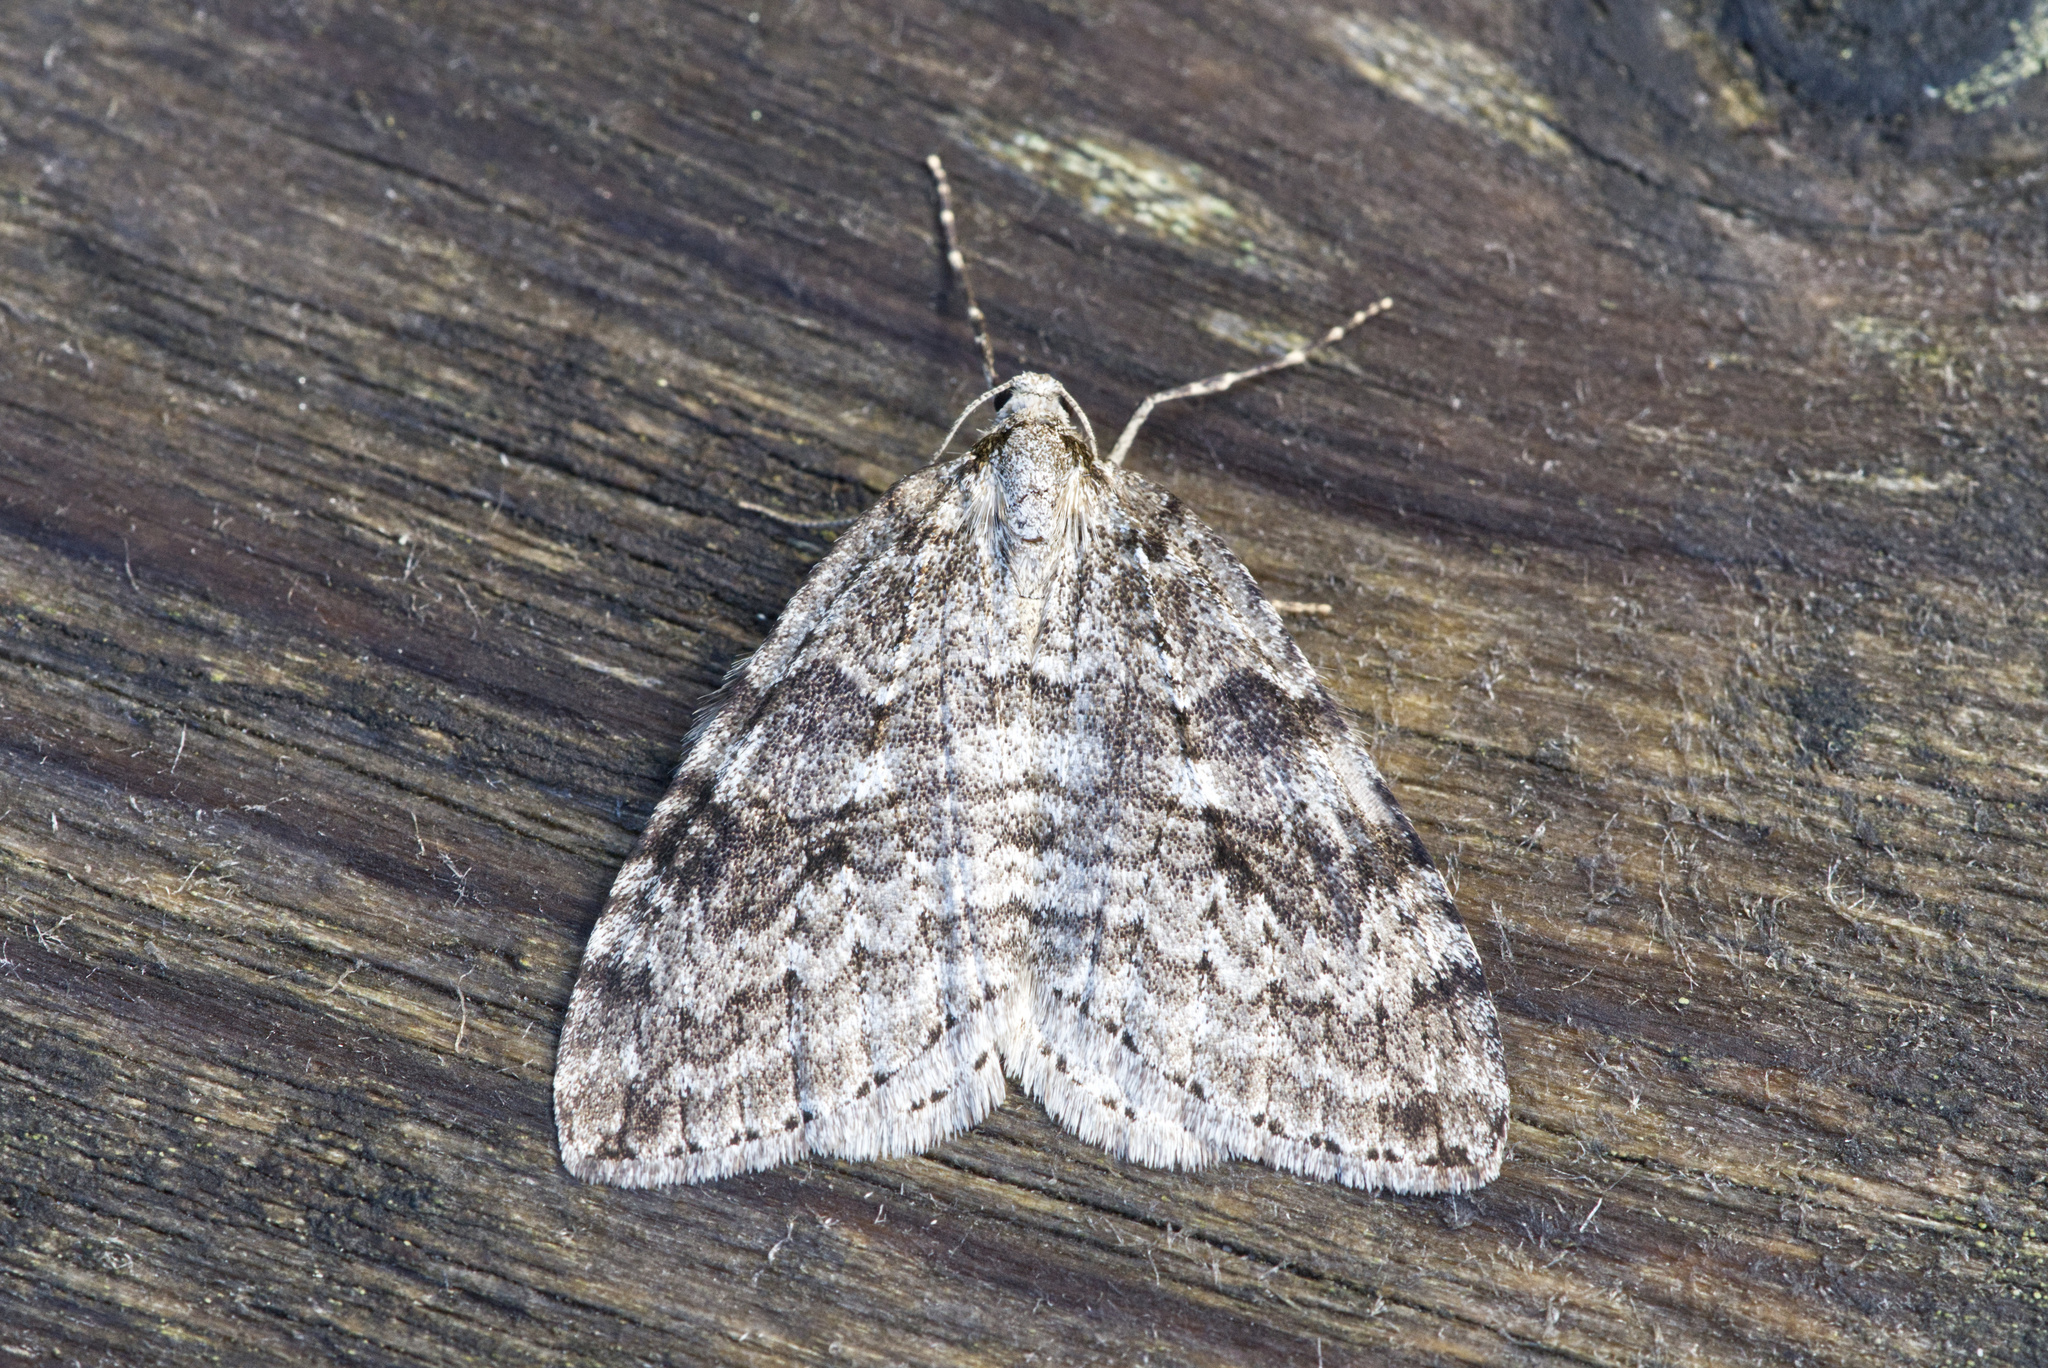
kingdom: Animalia
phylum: Arthropoda
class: Insecta
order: Lepidoptera
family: Geometridae
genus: Epirrita
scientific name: Epirrita
